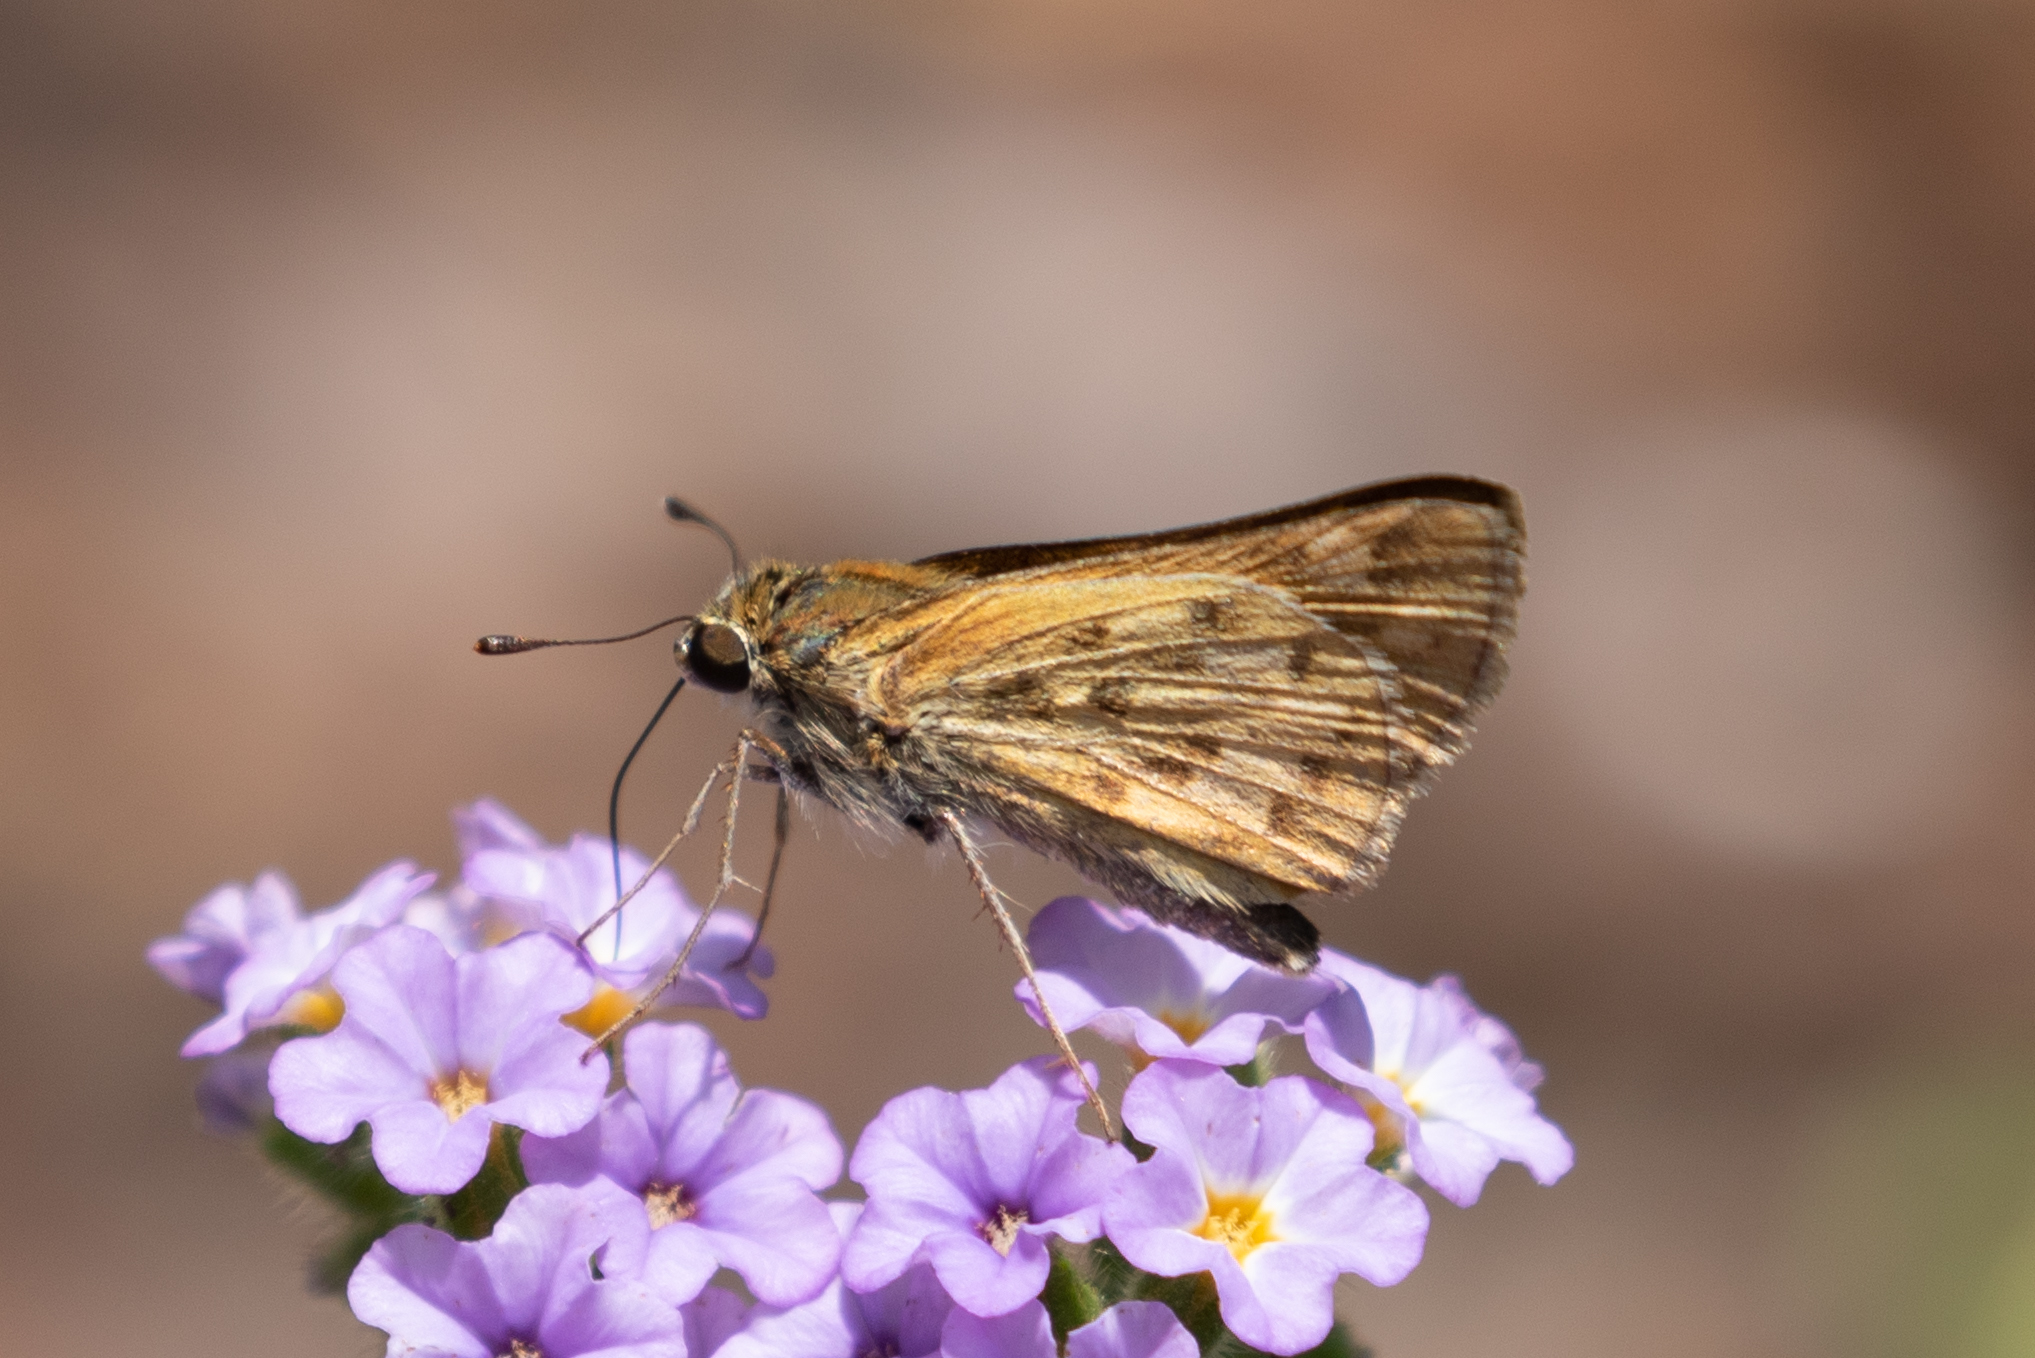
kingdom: Animalia
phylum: Arthropoda
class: Insecta
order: Lepidoptera
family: Hesperiidae
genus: Hylephila
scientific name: Hylephila phyleus
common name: Fiery skipper
